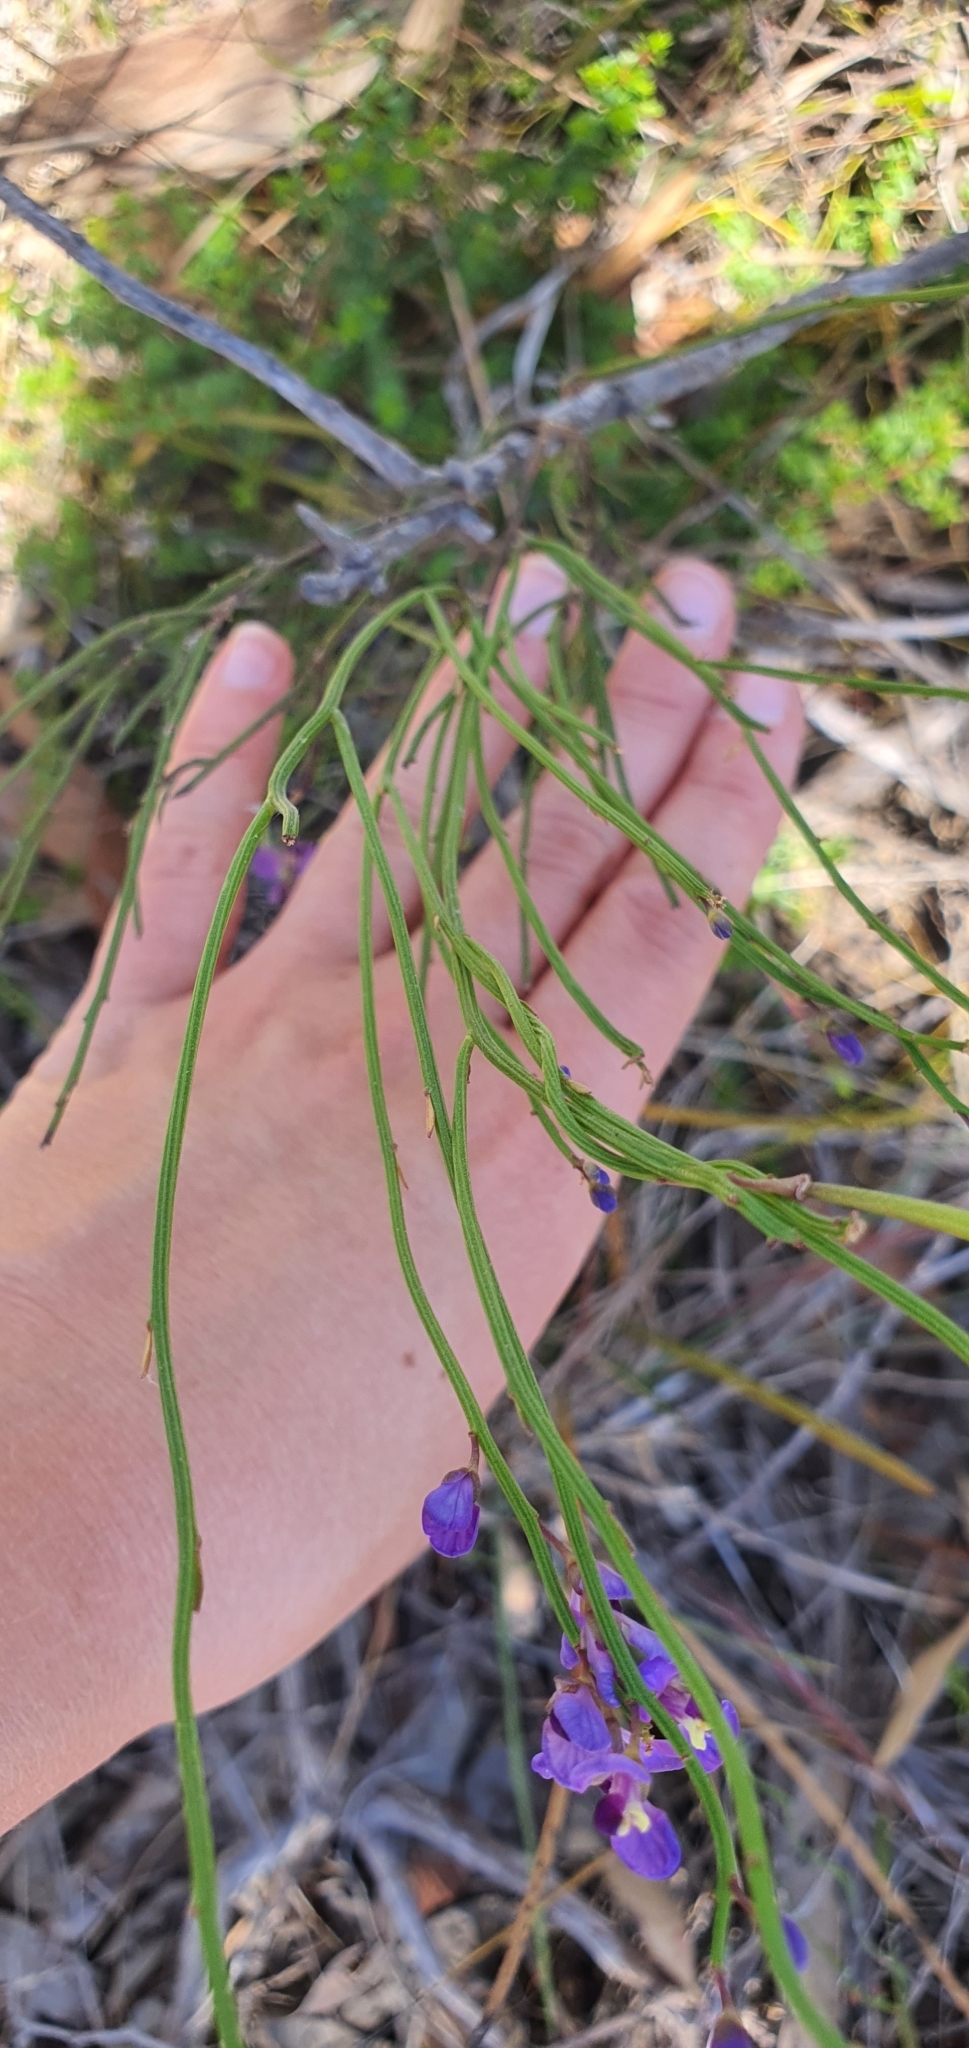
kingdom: Plantae
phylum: Tracheophyta
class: Magnoliopsida
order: Fabales
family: Polygalaceae
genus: Comesperma
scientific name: Comesperma volubile
